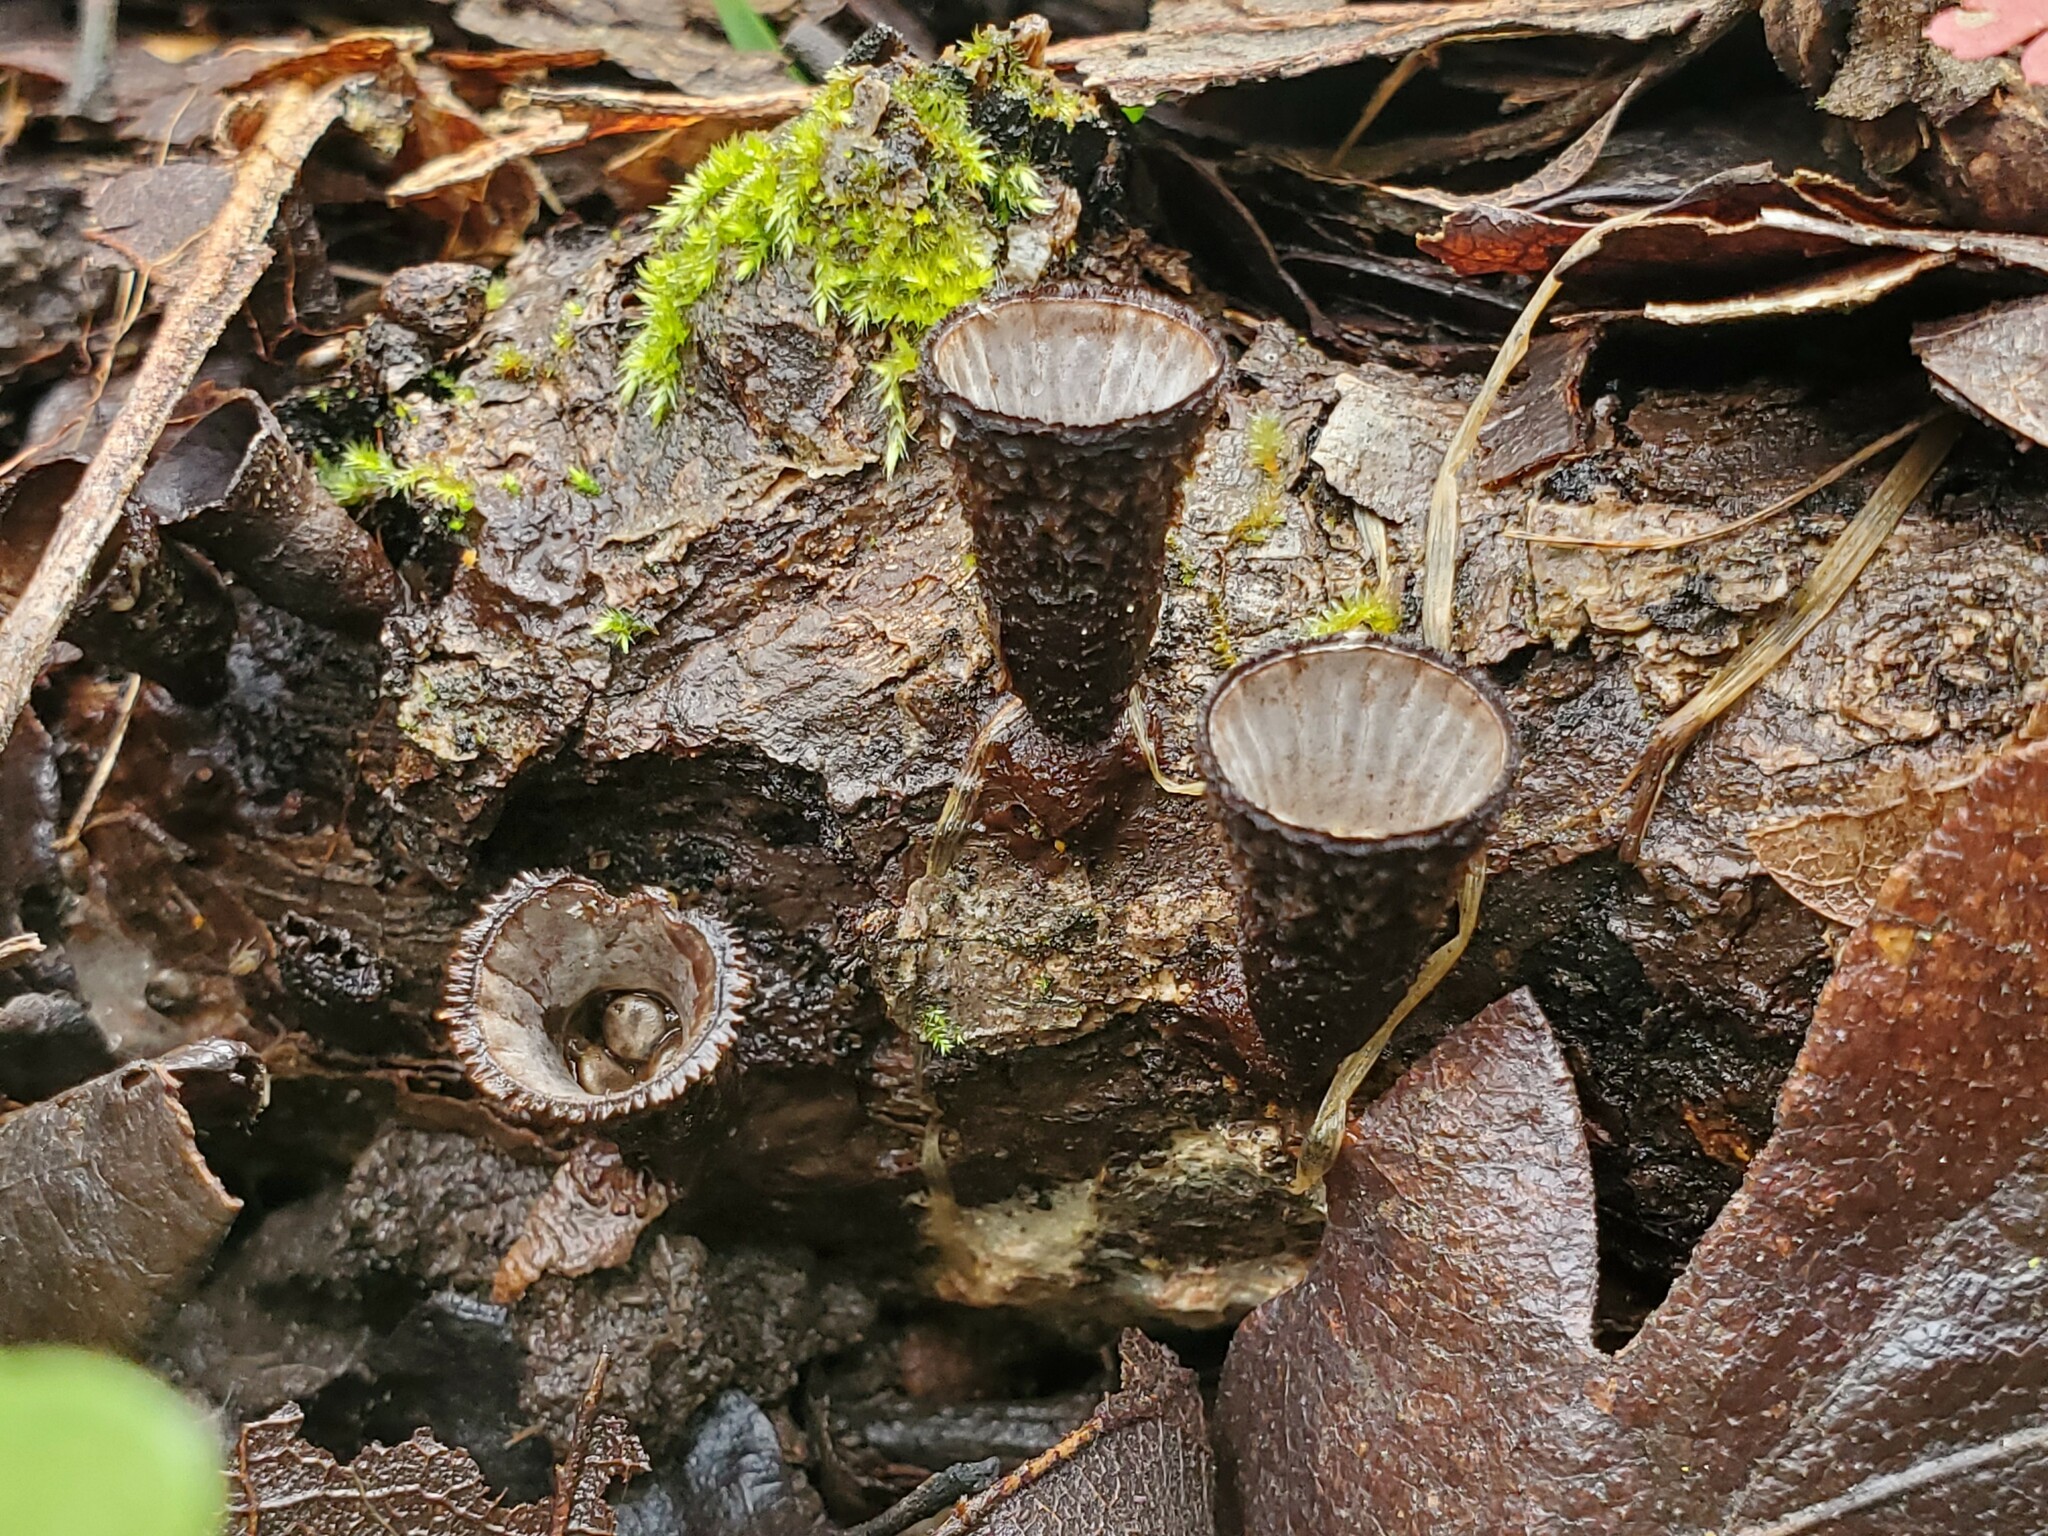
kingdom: Fungi
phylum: Basidiomycota
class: Agaricomycetes
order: Agaricales
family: Agaricaceae
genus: Cyathus
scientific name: Cyathus striatus
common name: Fluted bird's nest
